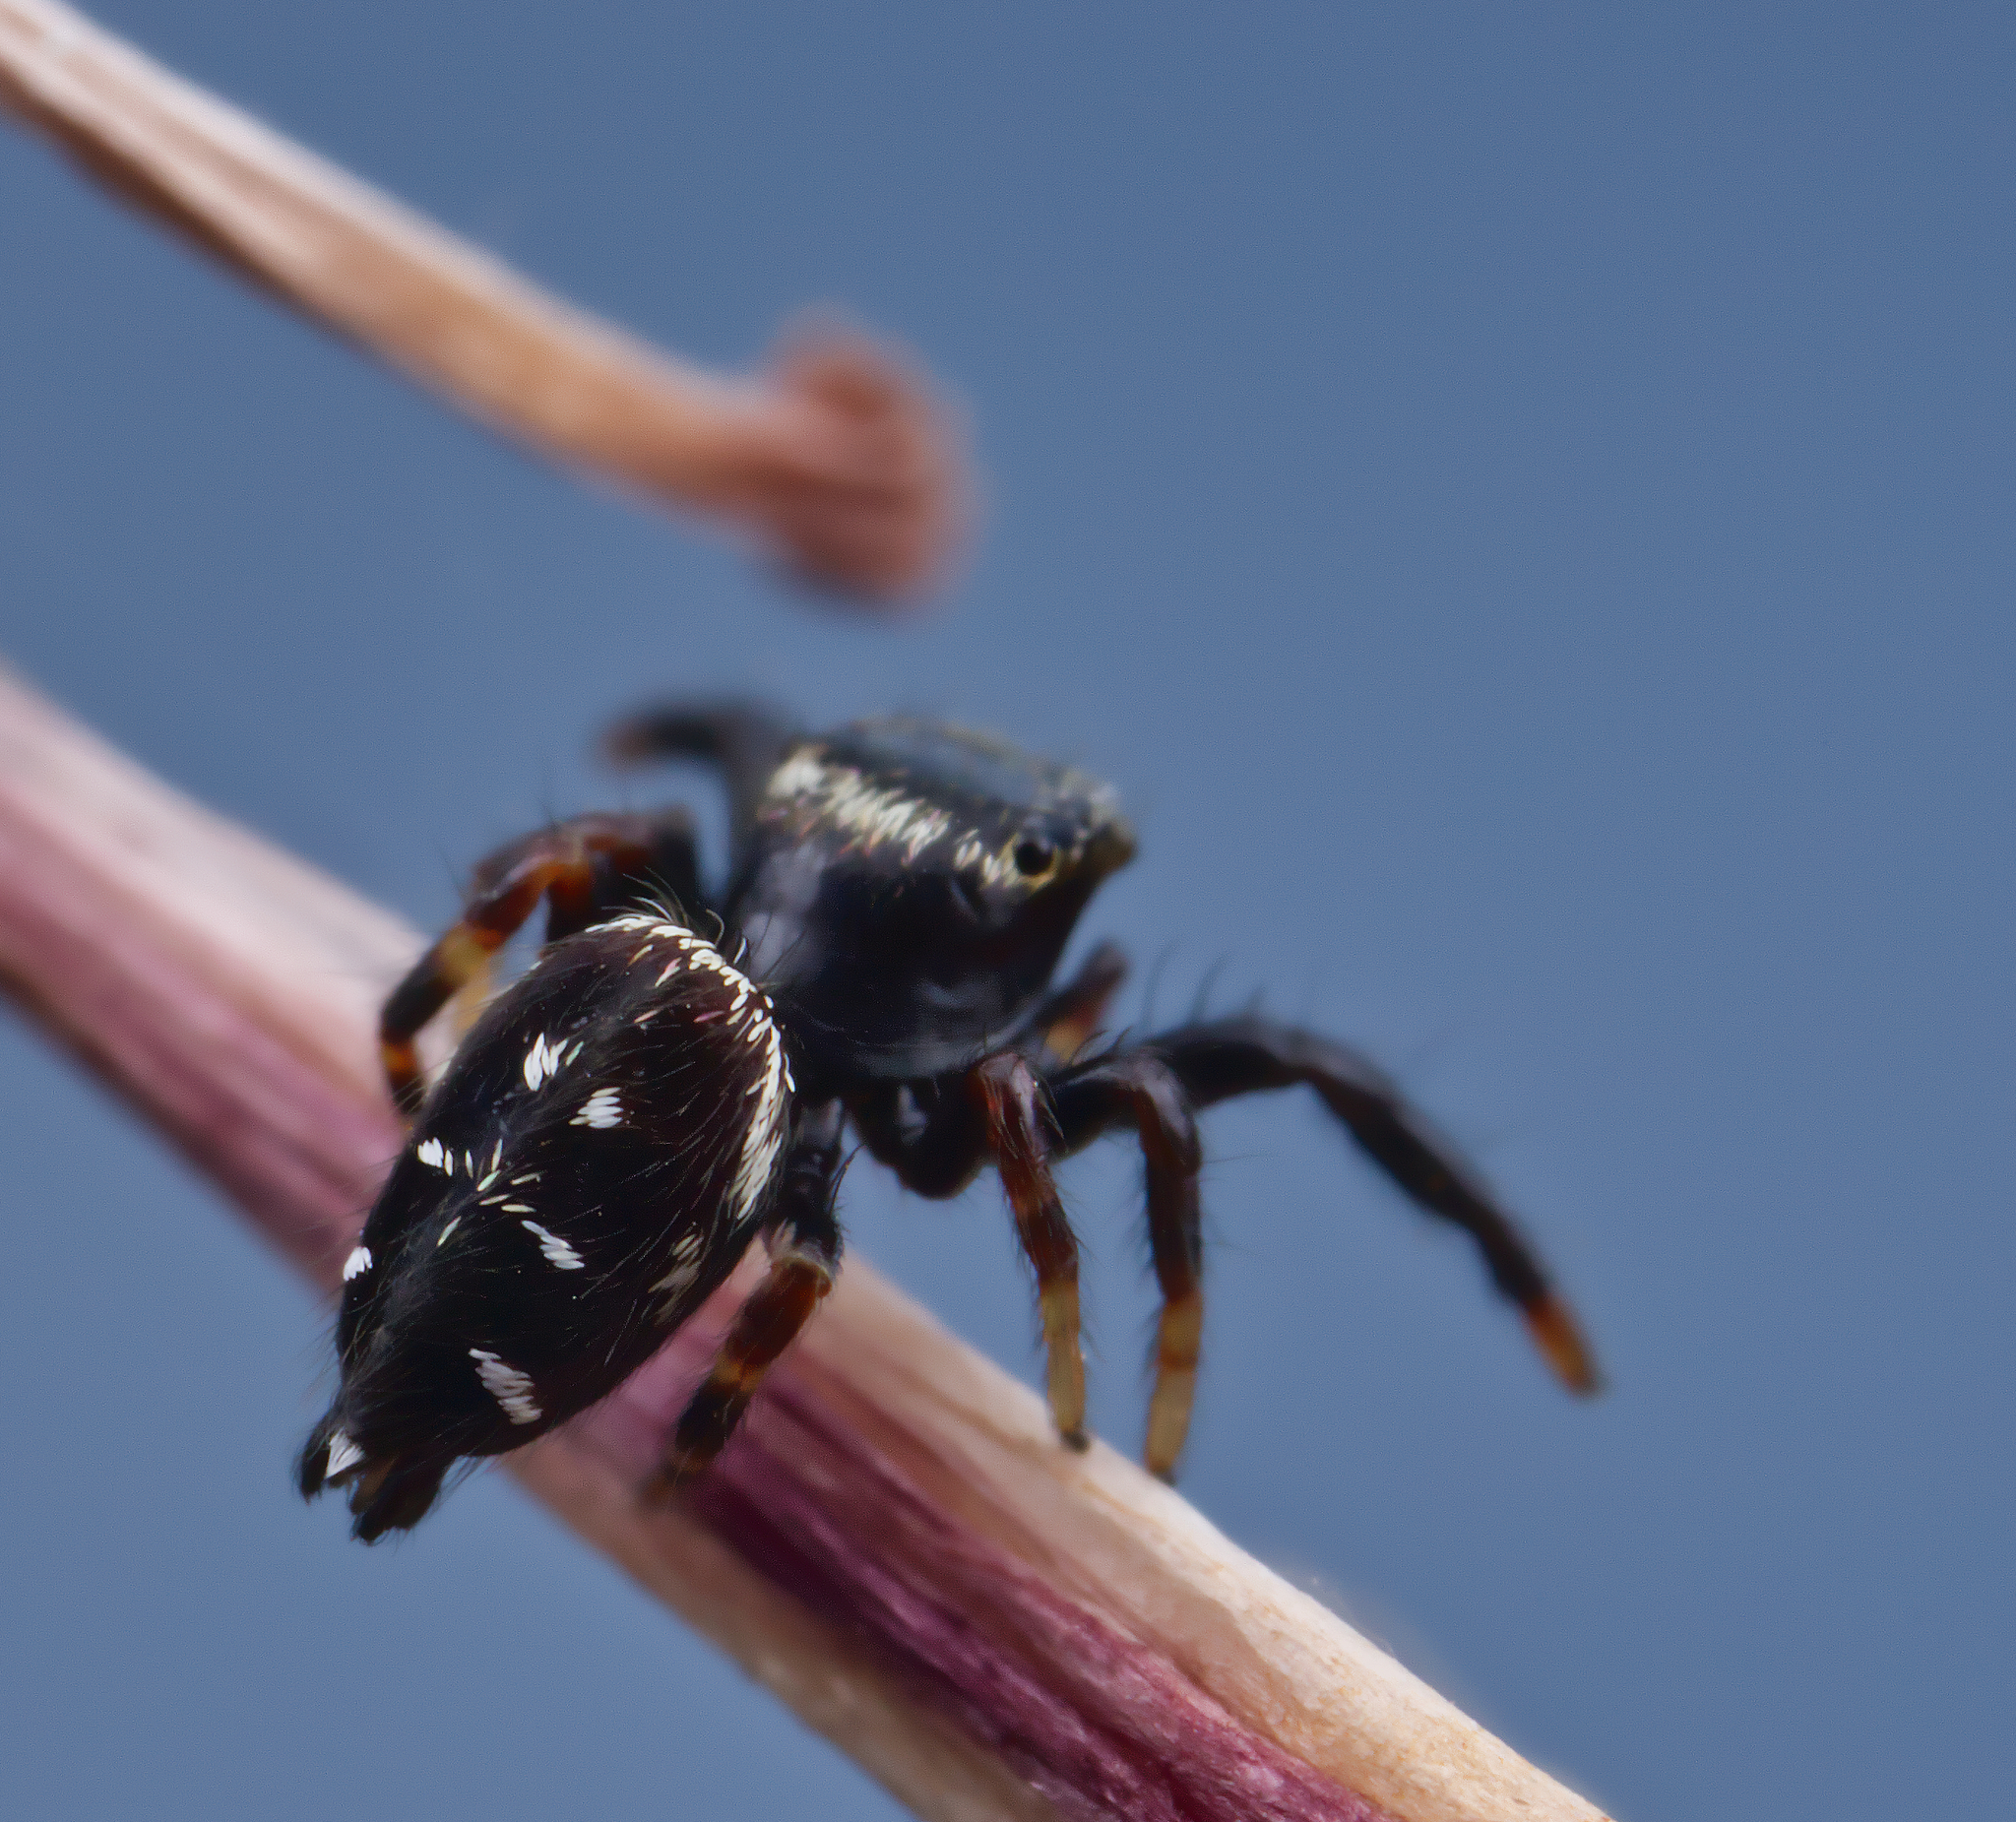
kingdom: Animalia
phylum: Arthropoda
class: Arachnida
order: Araneae
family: Salticidae
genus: Paraphidippus
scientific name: Paraphidippus aurantius
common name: Jumping spiders
